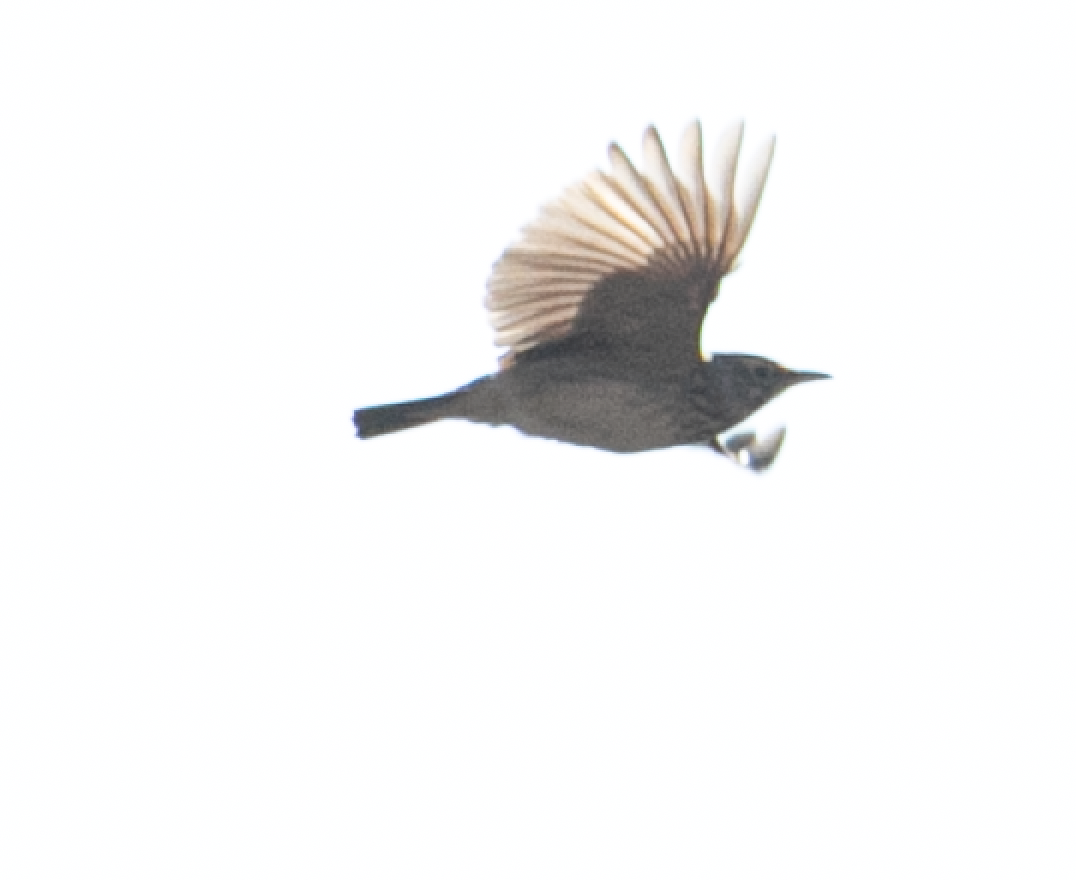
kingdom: Animalia
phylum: Chordata
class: Aves
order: Passeriformes
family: Alaudidae
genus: Galerida
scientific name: Galerida cristata
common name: Crested lark
